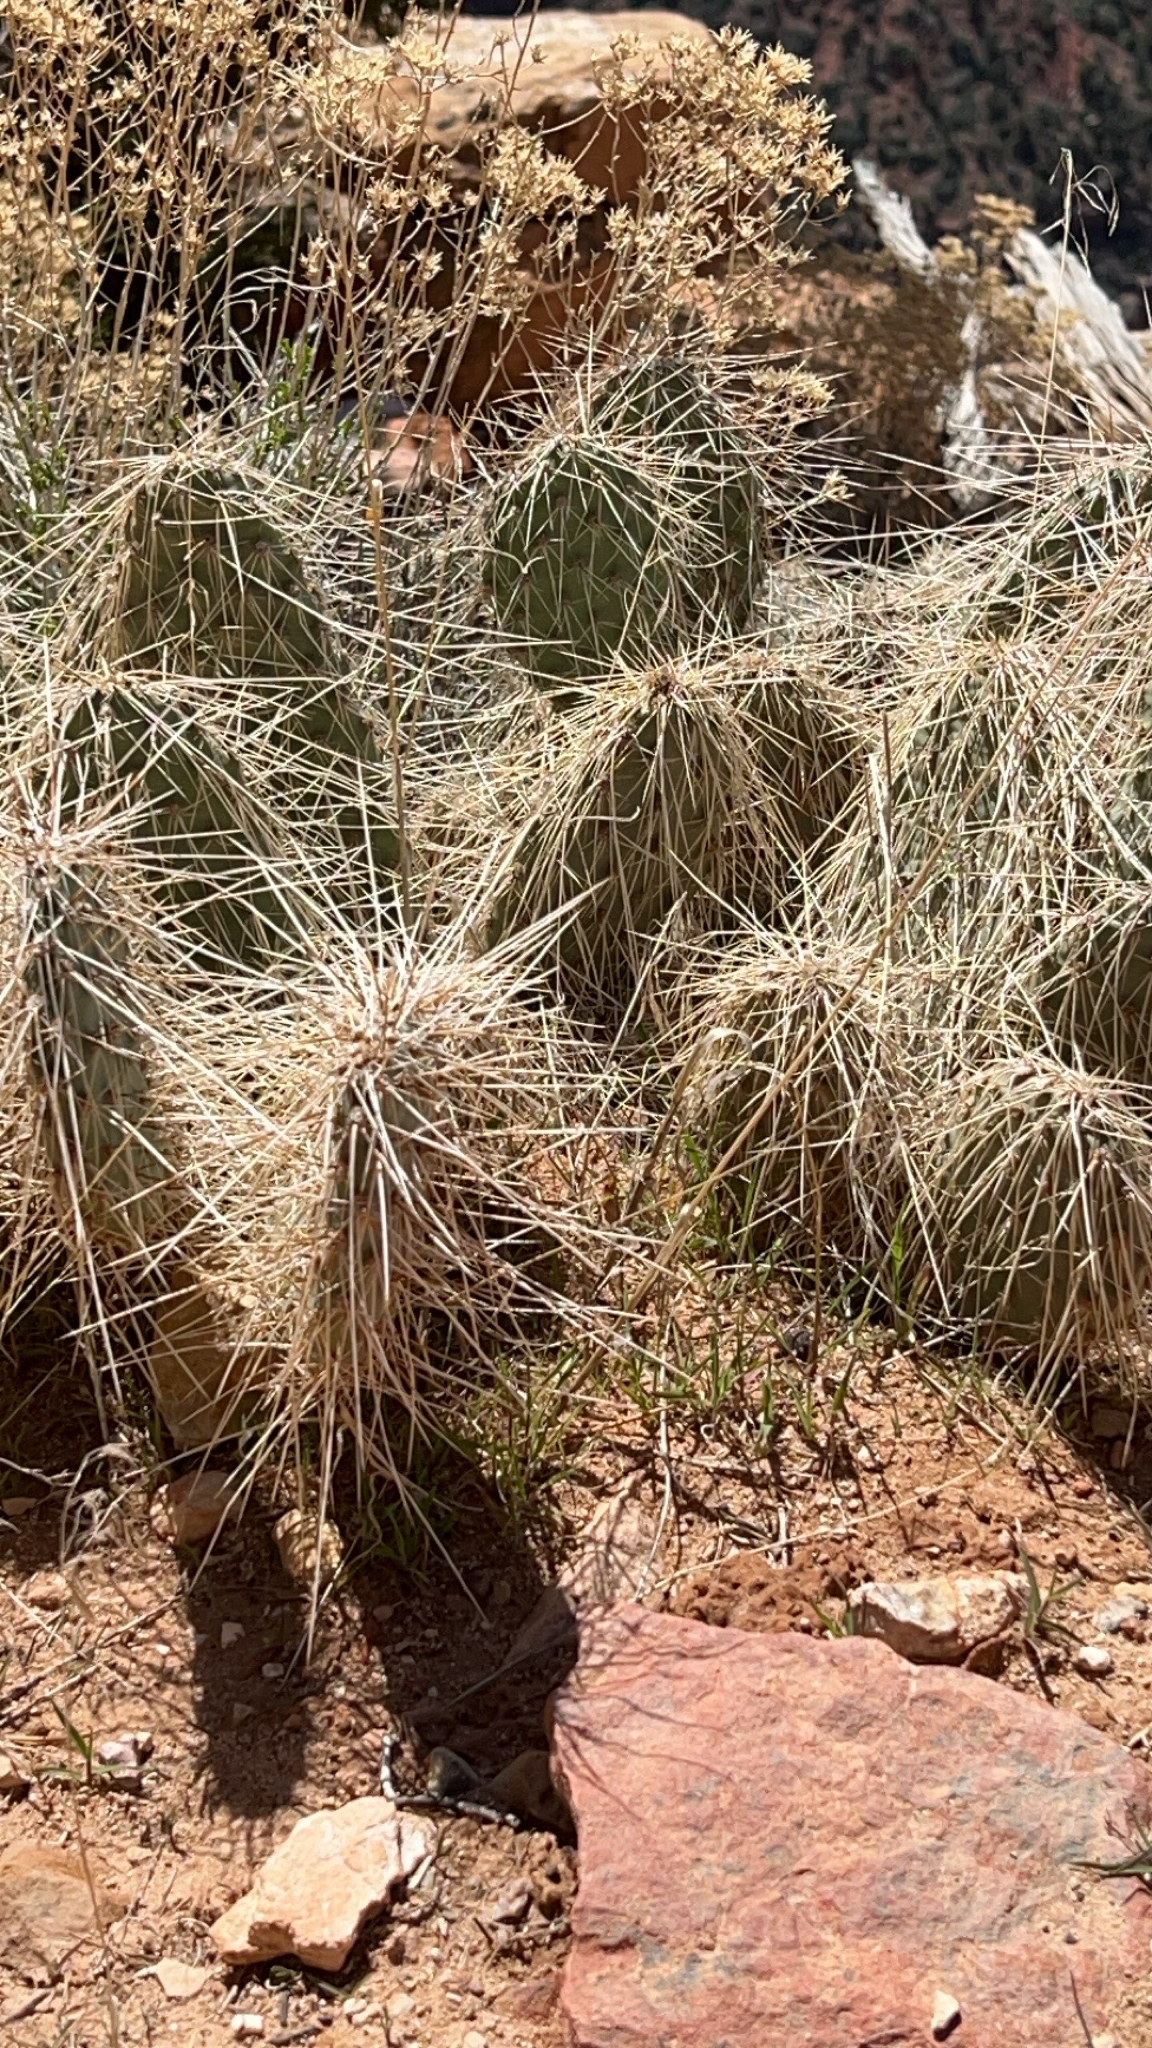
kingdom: Plantae
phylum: Tracheophyta
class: Magnoliopsida
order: Caryophyllales
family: Cactaceae
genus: Opuntia
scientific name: Opuntia polyacantha
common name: Plains prickly-pear
